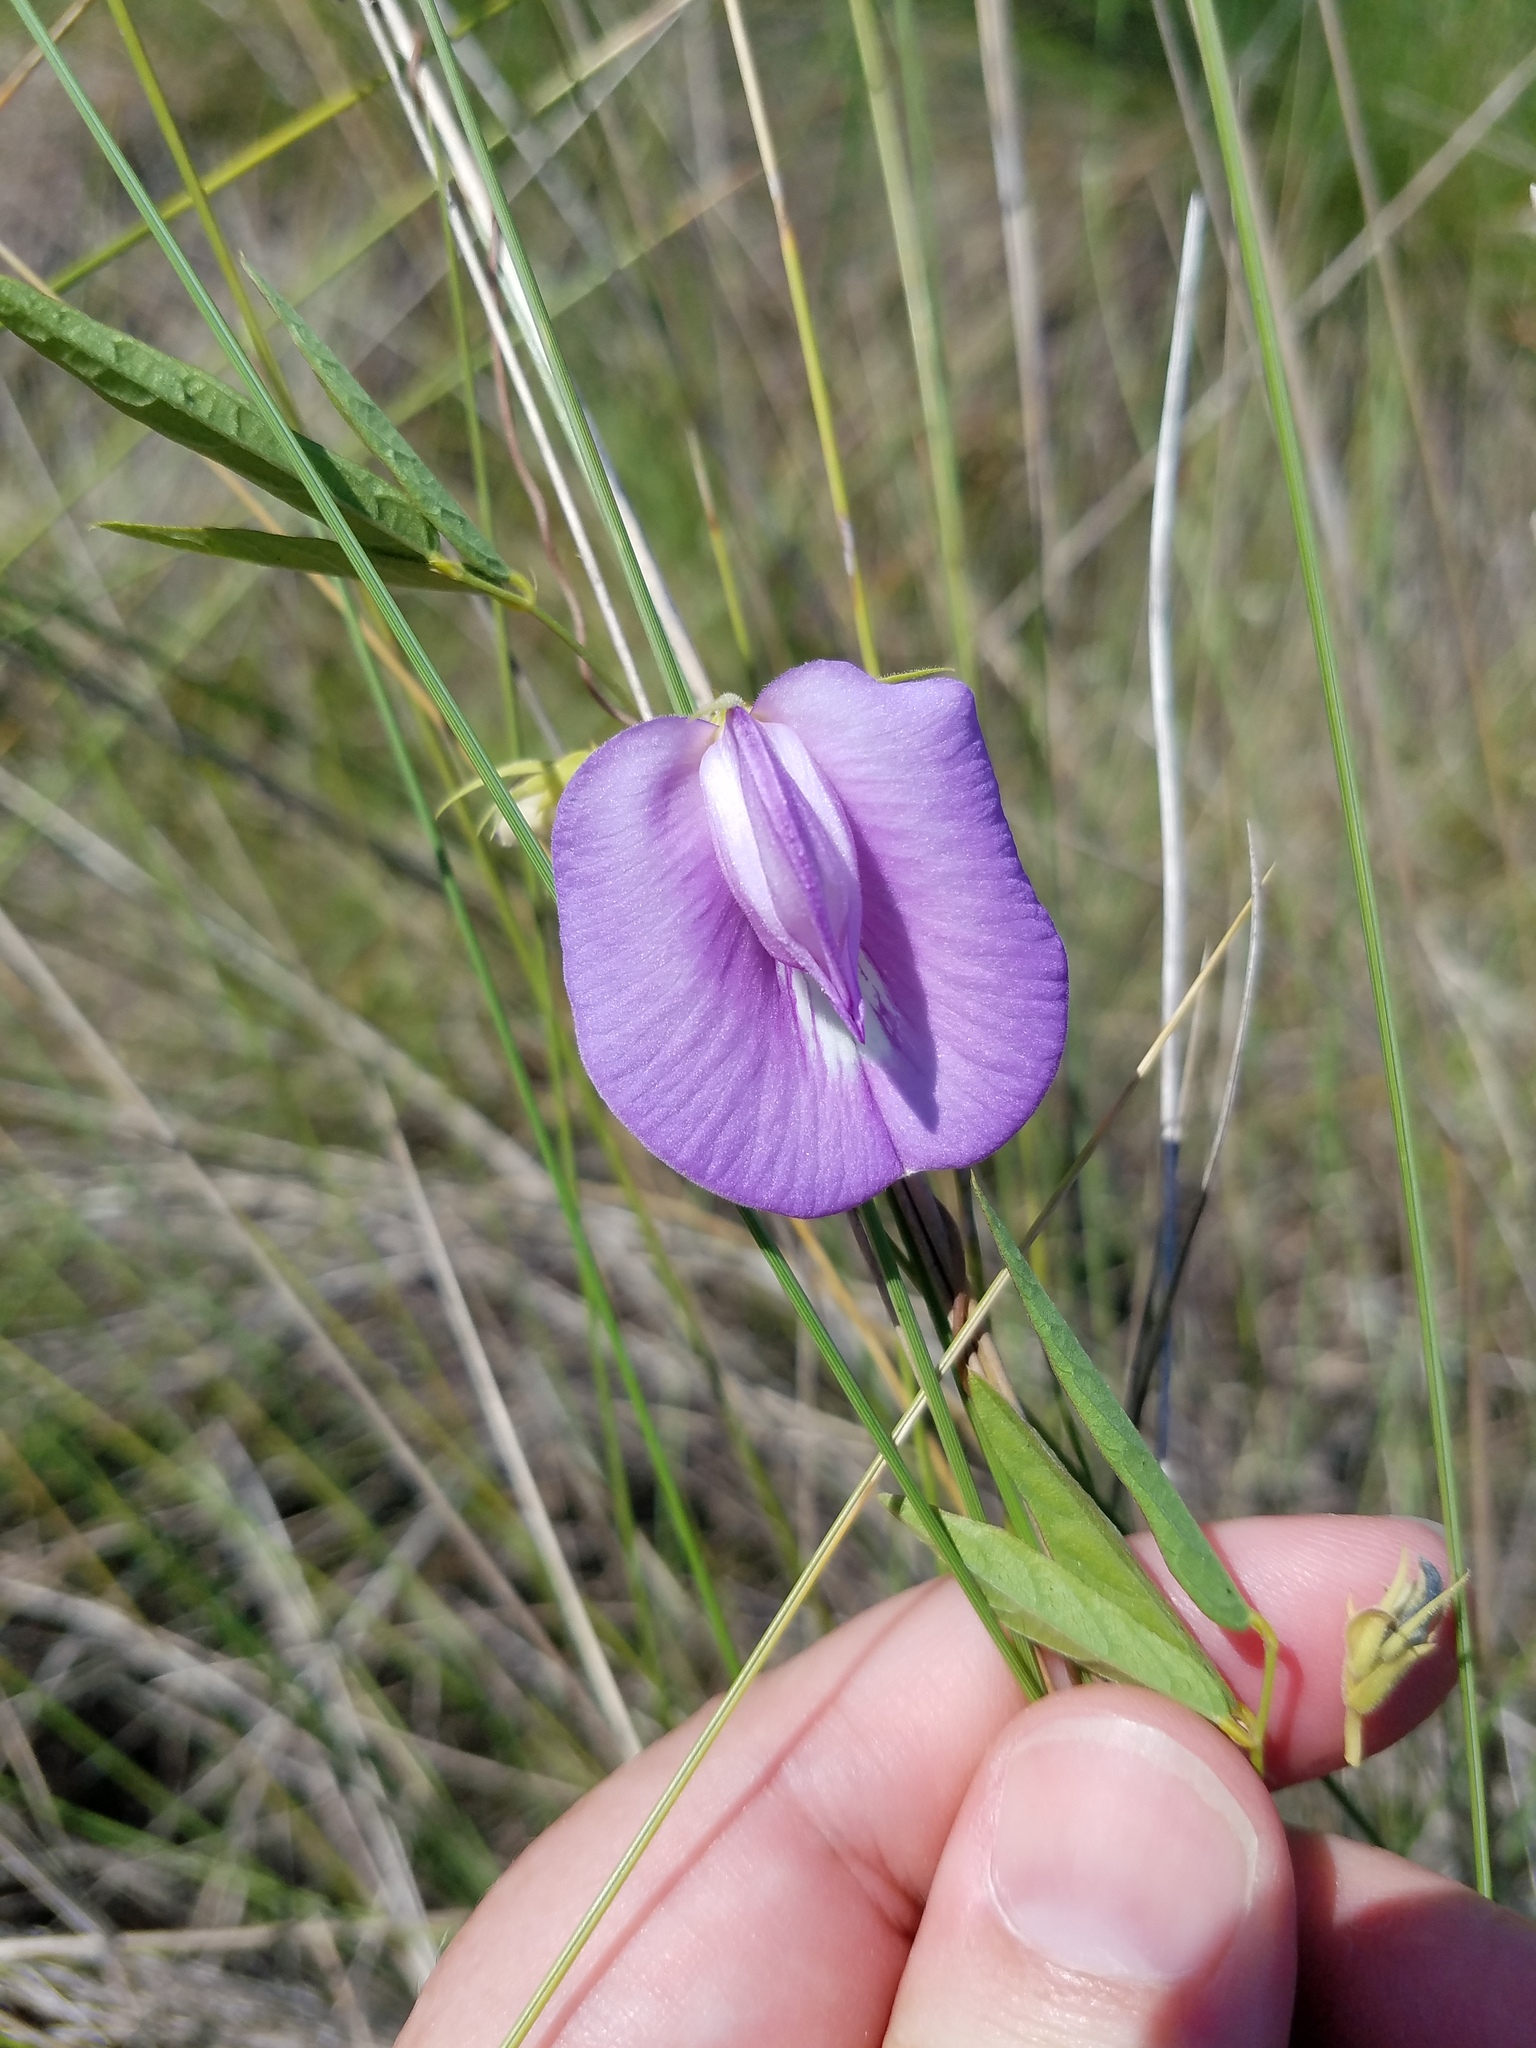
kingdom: Plantae
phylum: Tracheophyta
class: Magnoliopsida
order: Fabales
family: Fabaceae
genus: Centrosema
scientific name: Centrosema virginianum
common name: Butterfly-pea
